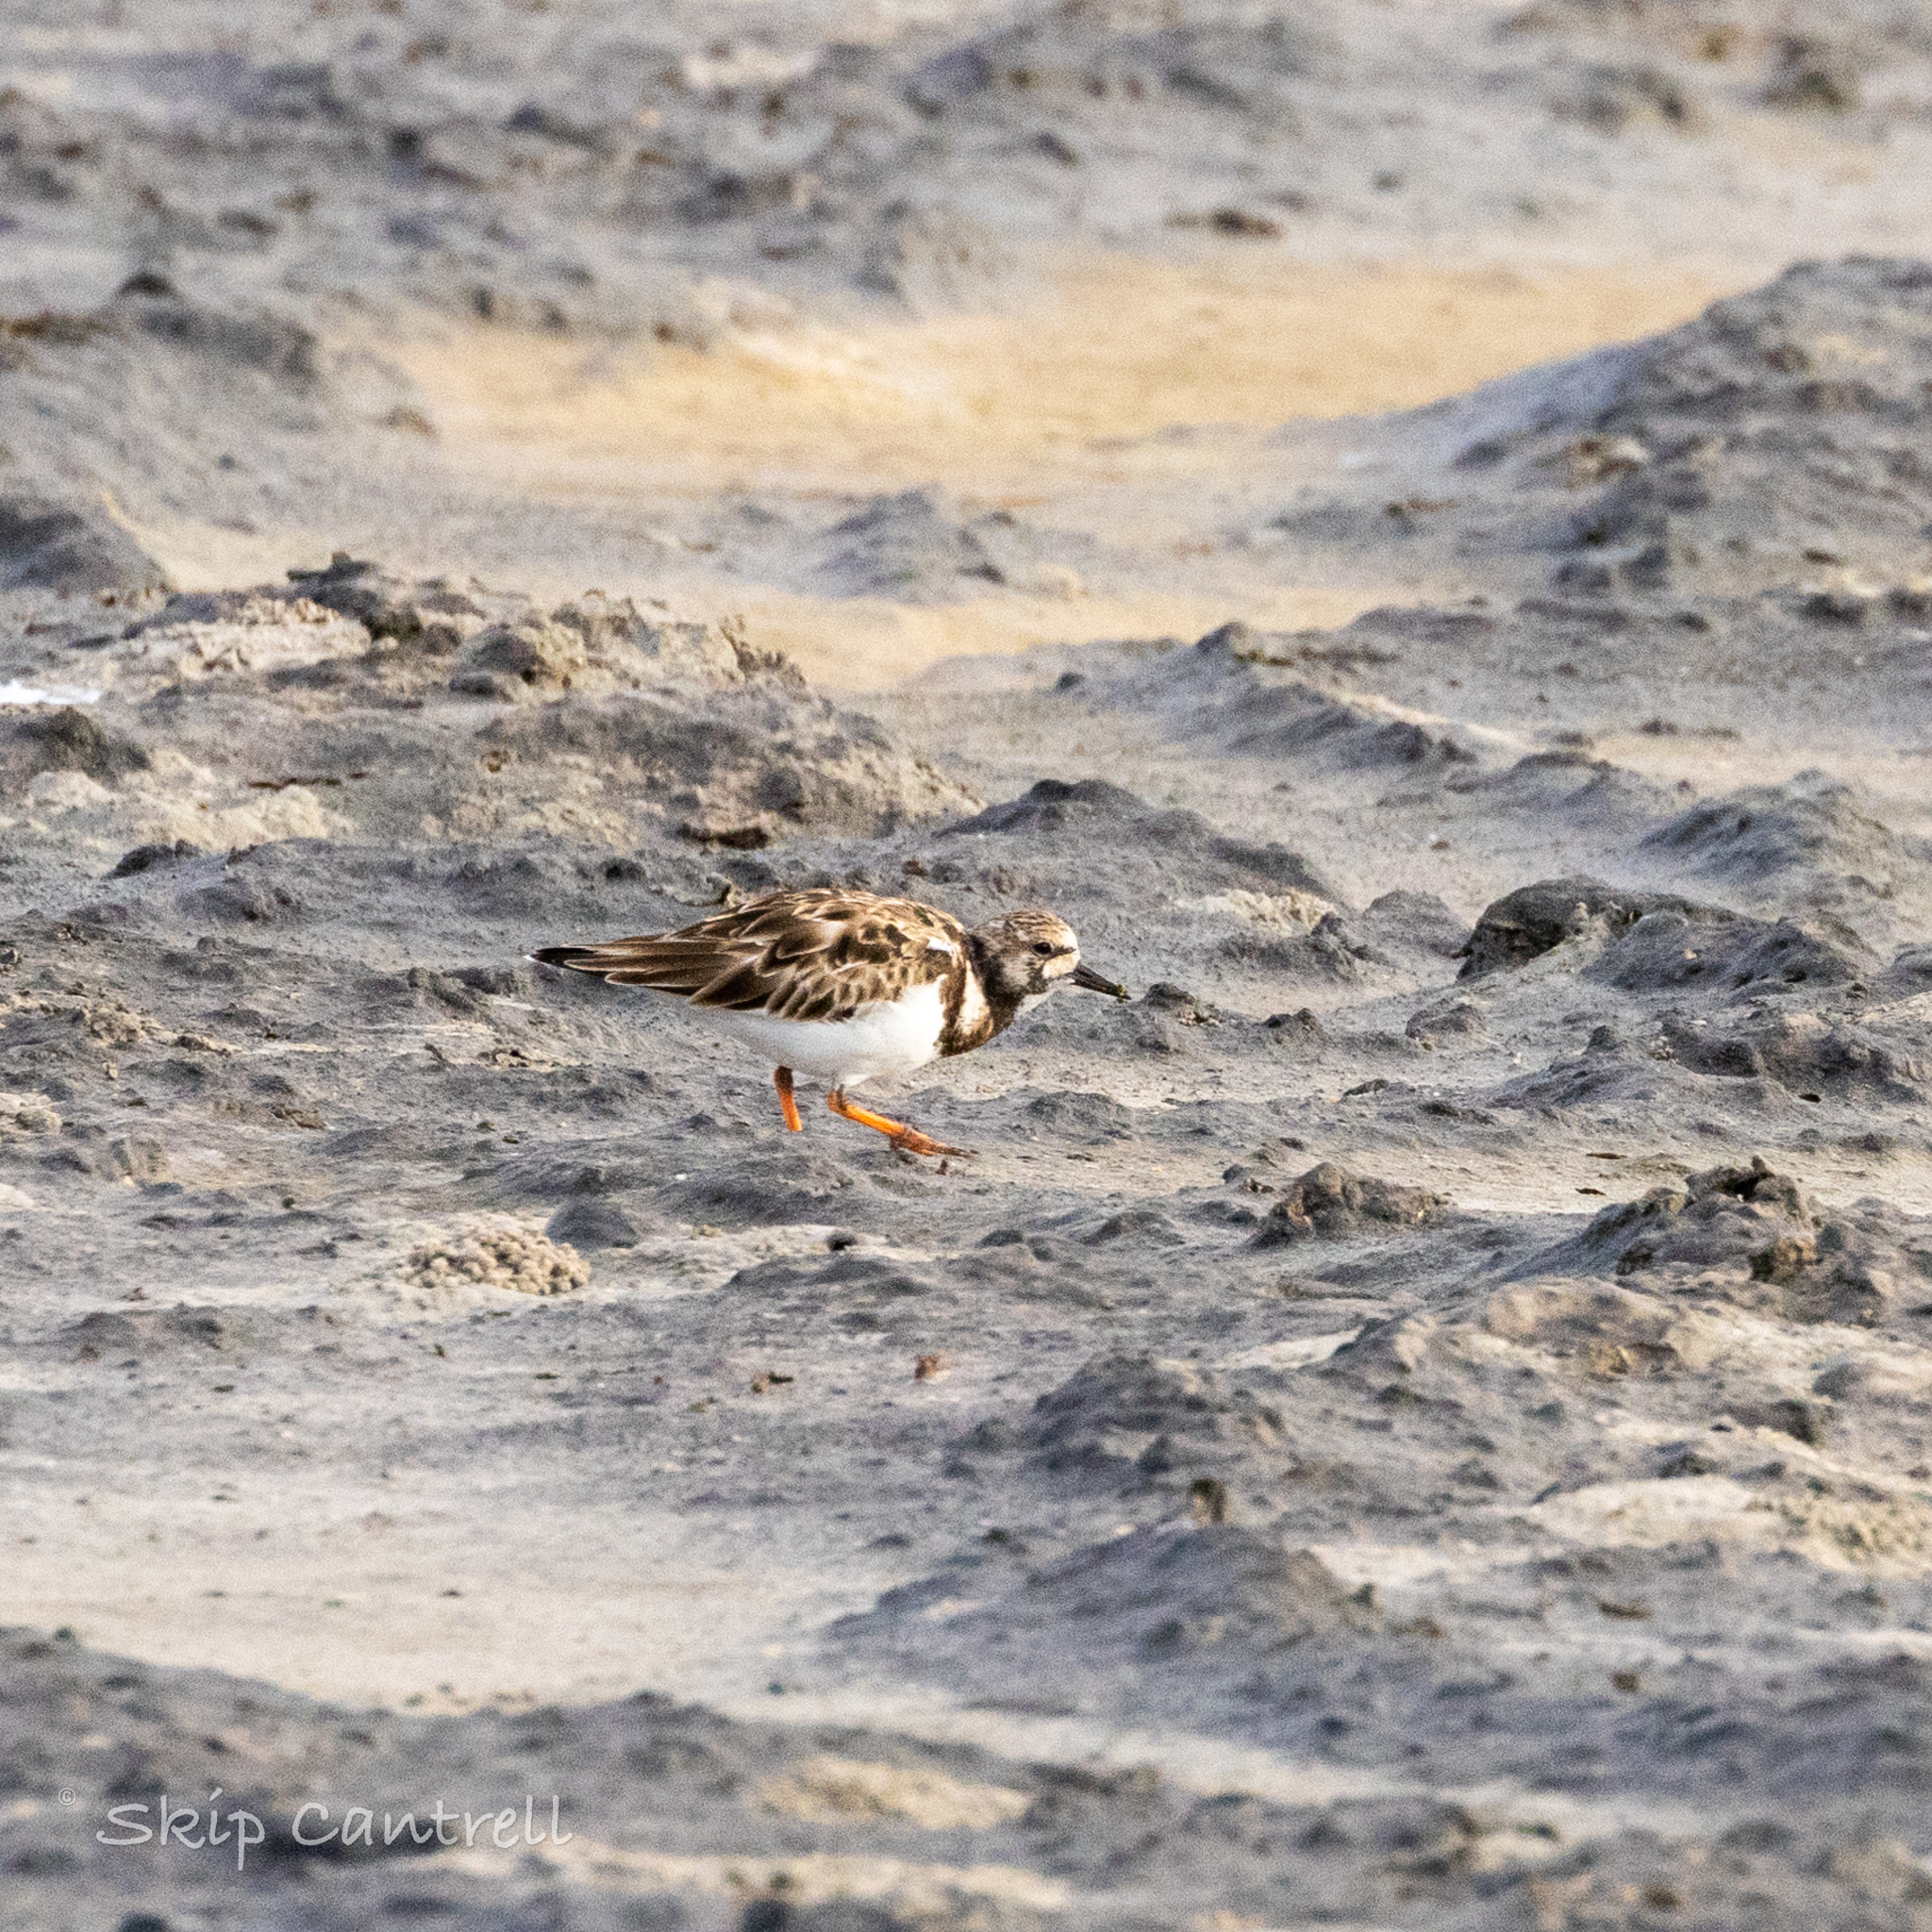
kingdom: Animalia
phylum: Chordata
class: Aves
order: Charadriiformes
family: Scolopacidae
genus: Arenaria
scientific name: Arenaria interpres
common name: Ruddy turnstone
